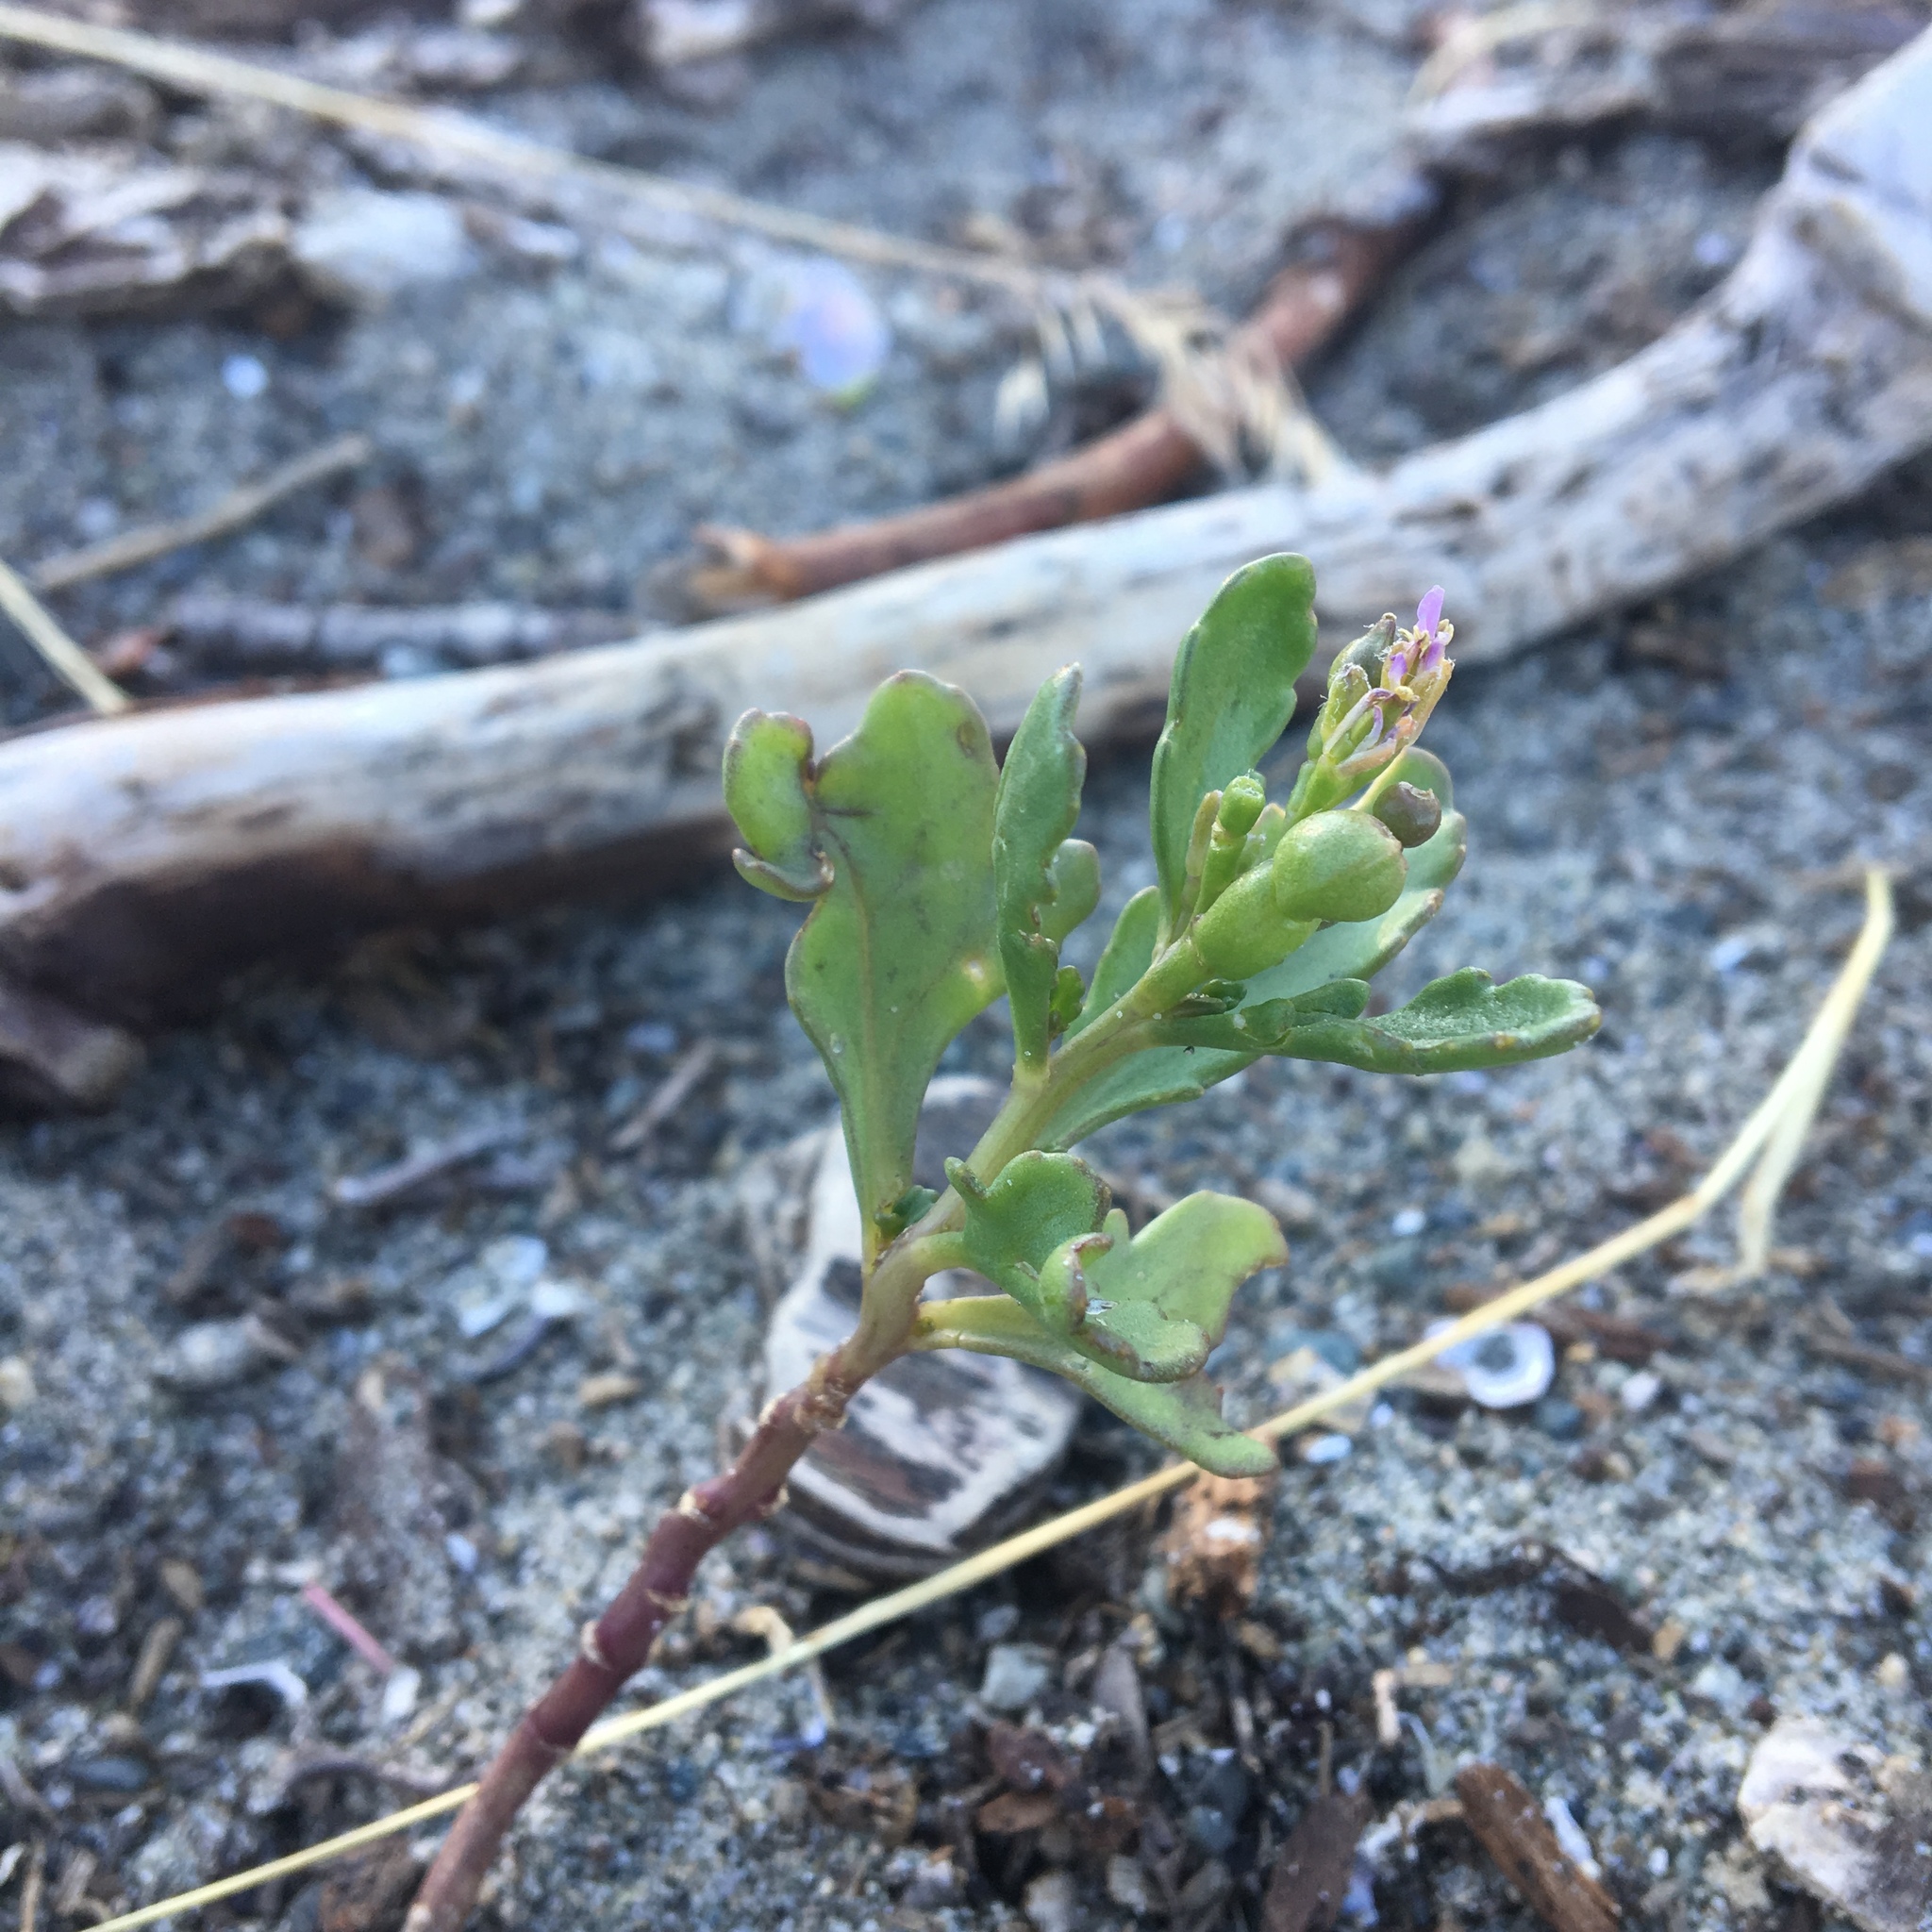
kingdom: Plantae
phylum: Tracheophyta
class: Magnoliopsida
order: Brassicales
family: Brassicaceae
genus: Cakile
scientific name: Cakile edentula
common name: American sea rocket
